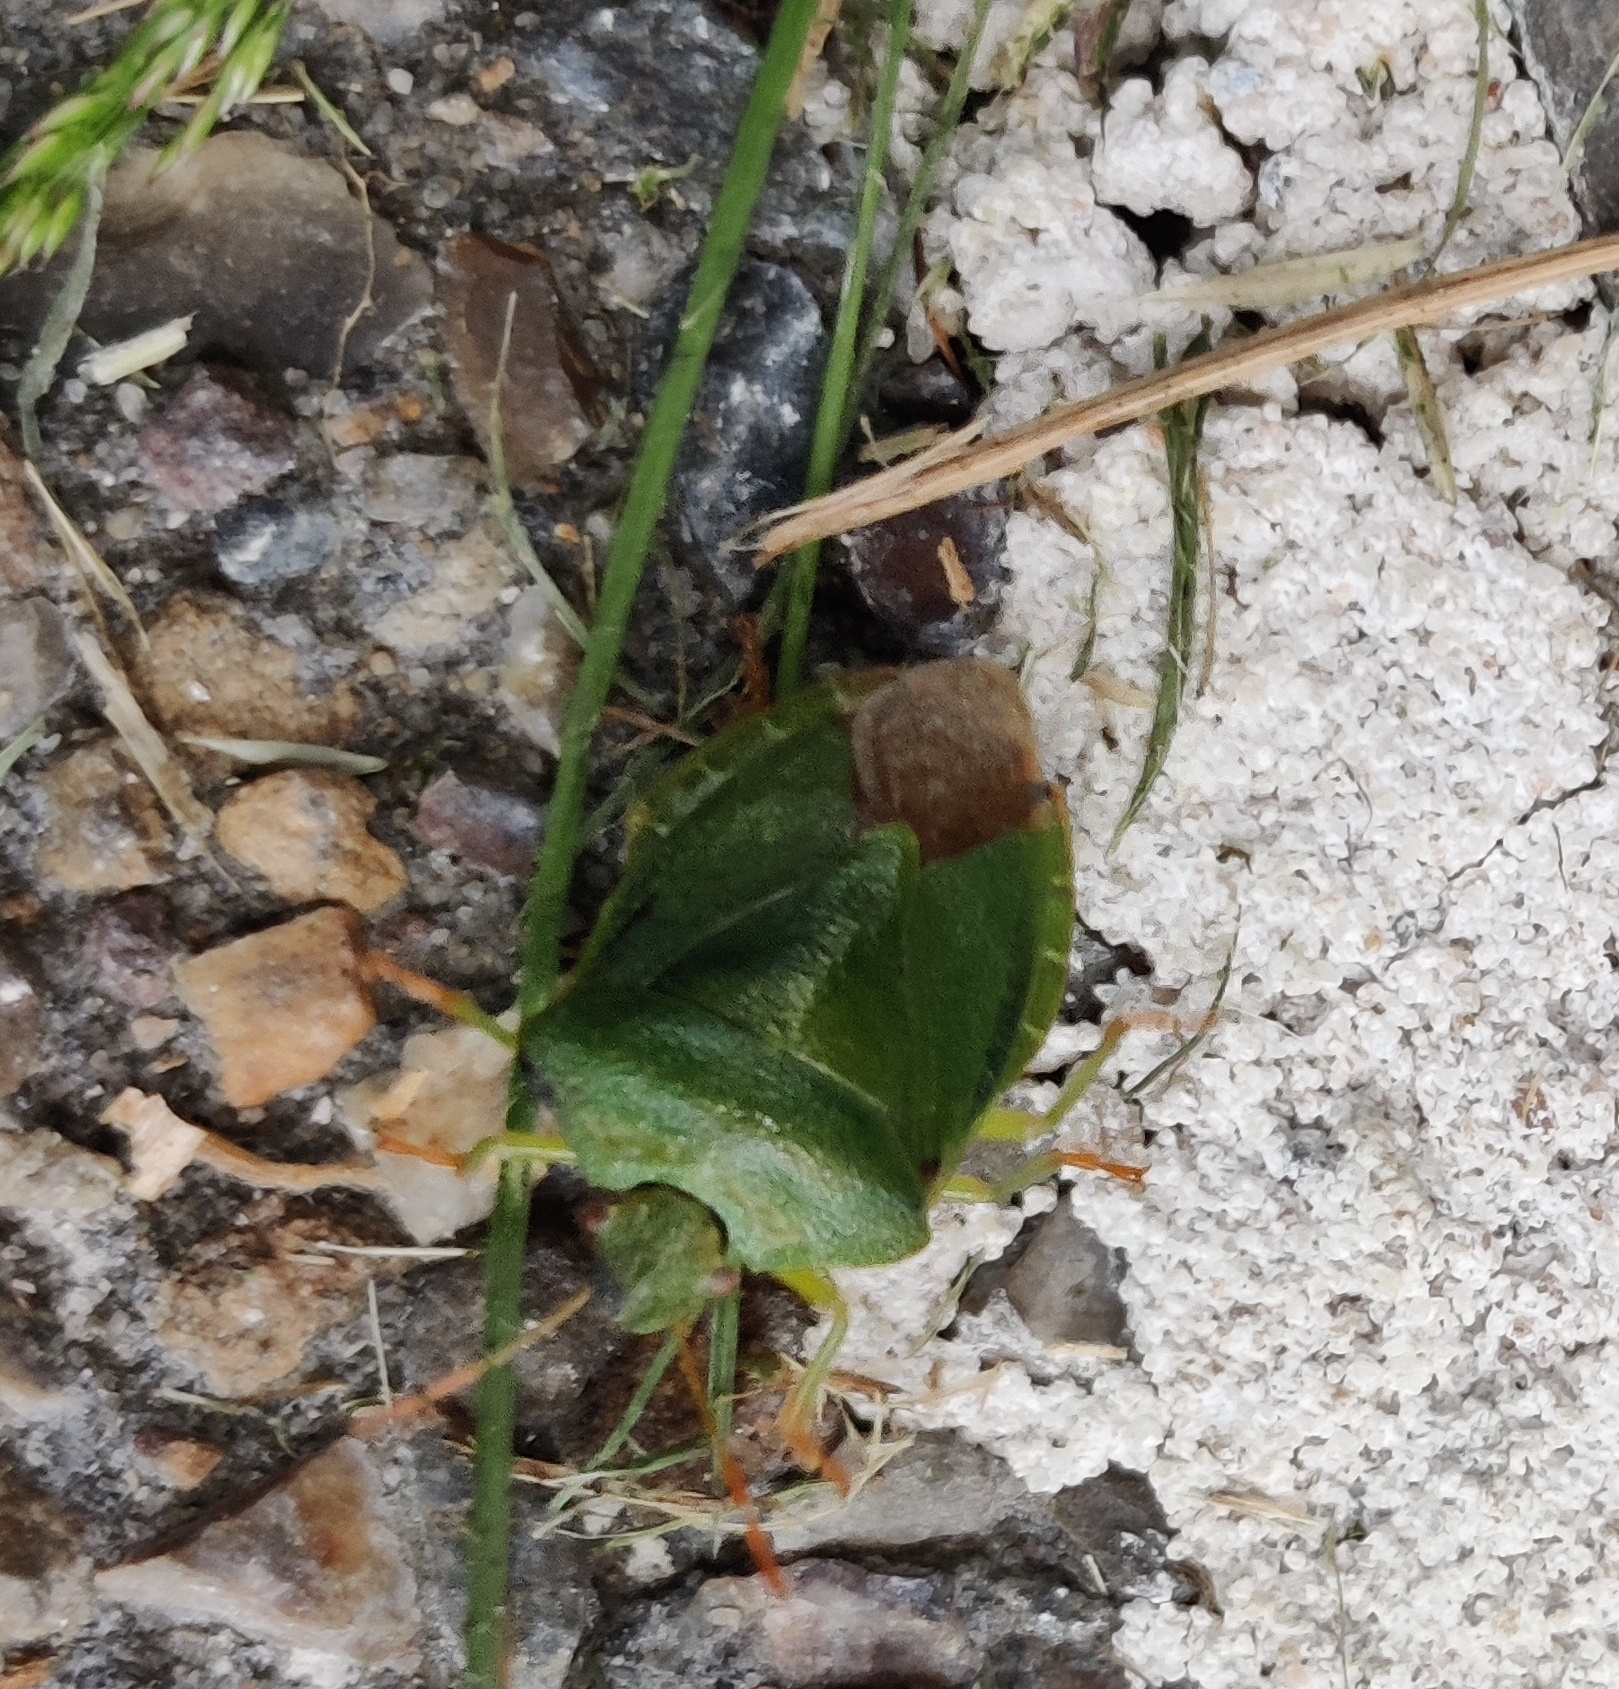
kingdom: Animalia
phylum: Arthropoda
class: Insecta
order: Hemiptera
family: Pentatomidae
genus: Palomena
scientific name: Palomena prasina
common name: Green shieldbug
